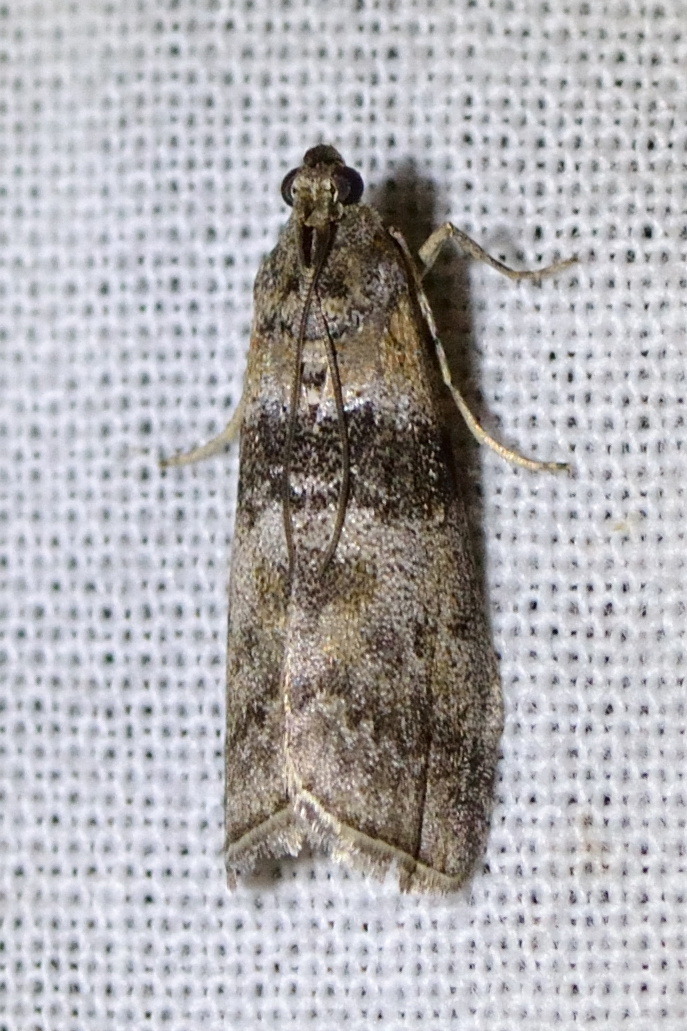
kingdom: Animalia
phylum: Arthropoda
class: Insecta
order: Lepidoptera
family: Pyralidae
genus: Sciota
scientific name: Sciota rhenella
